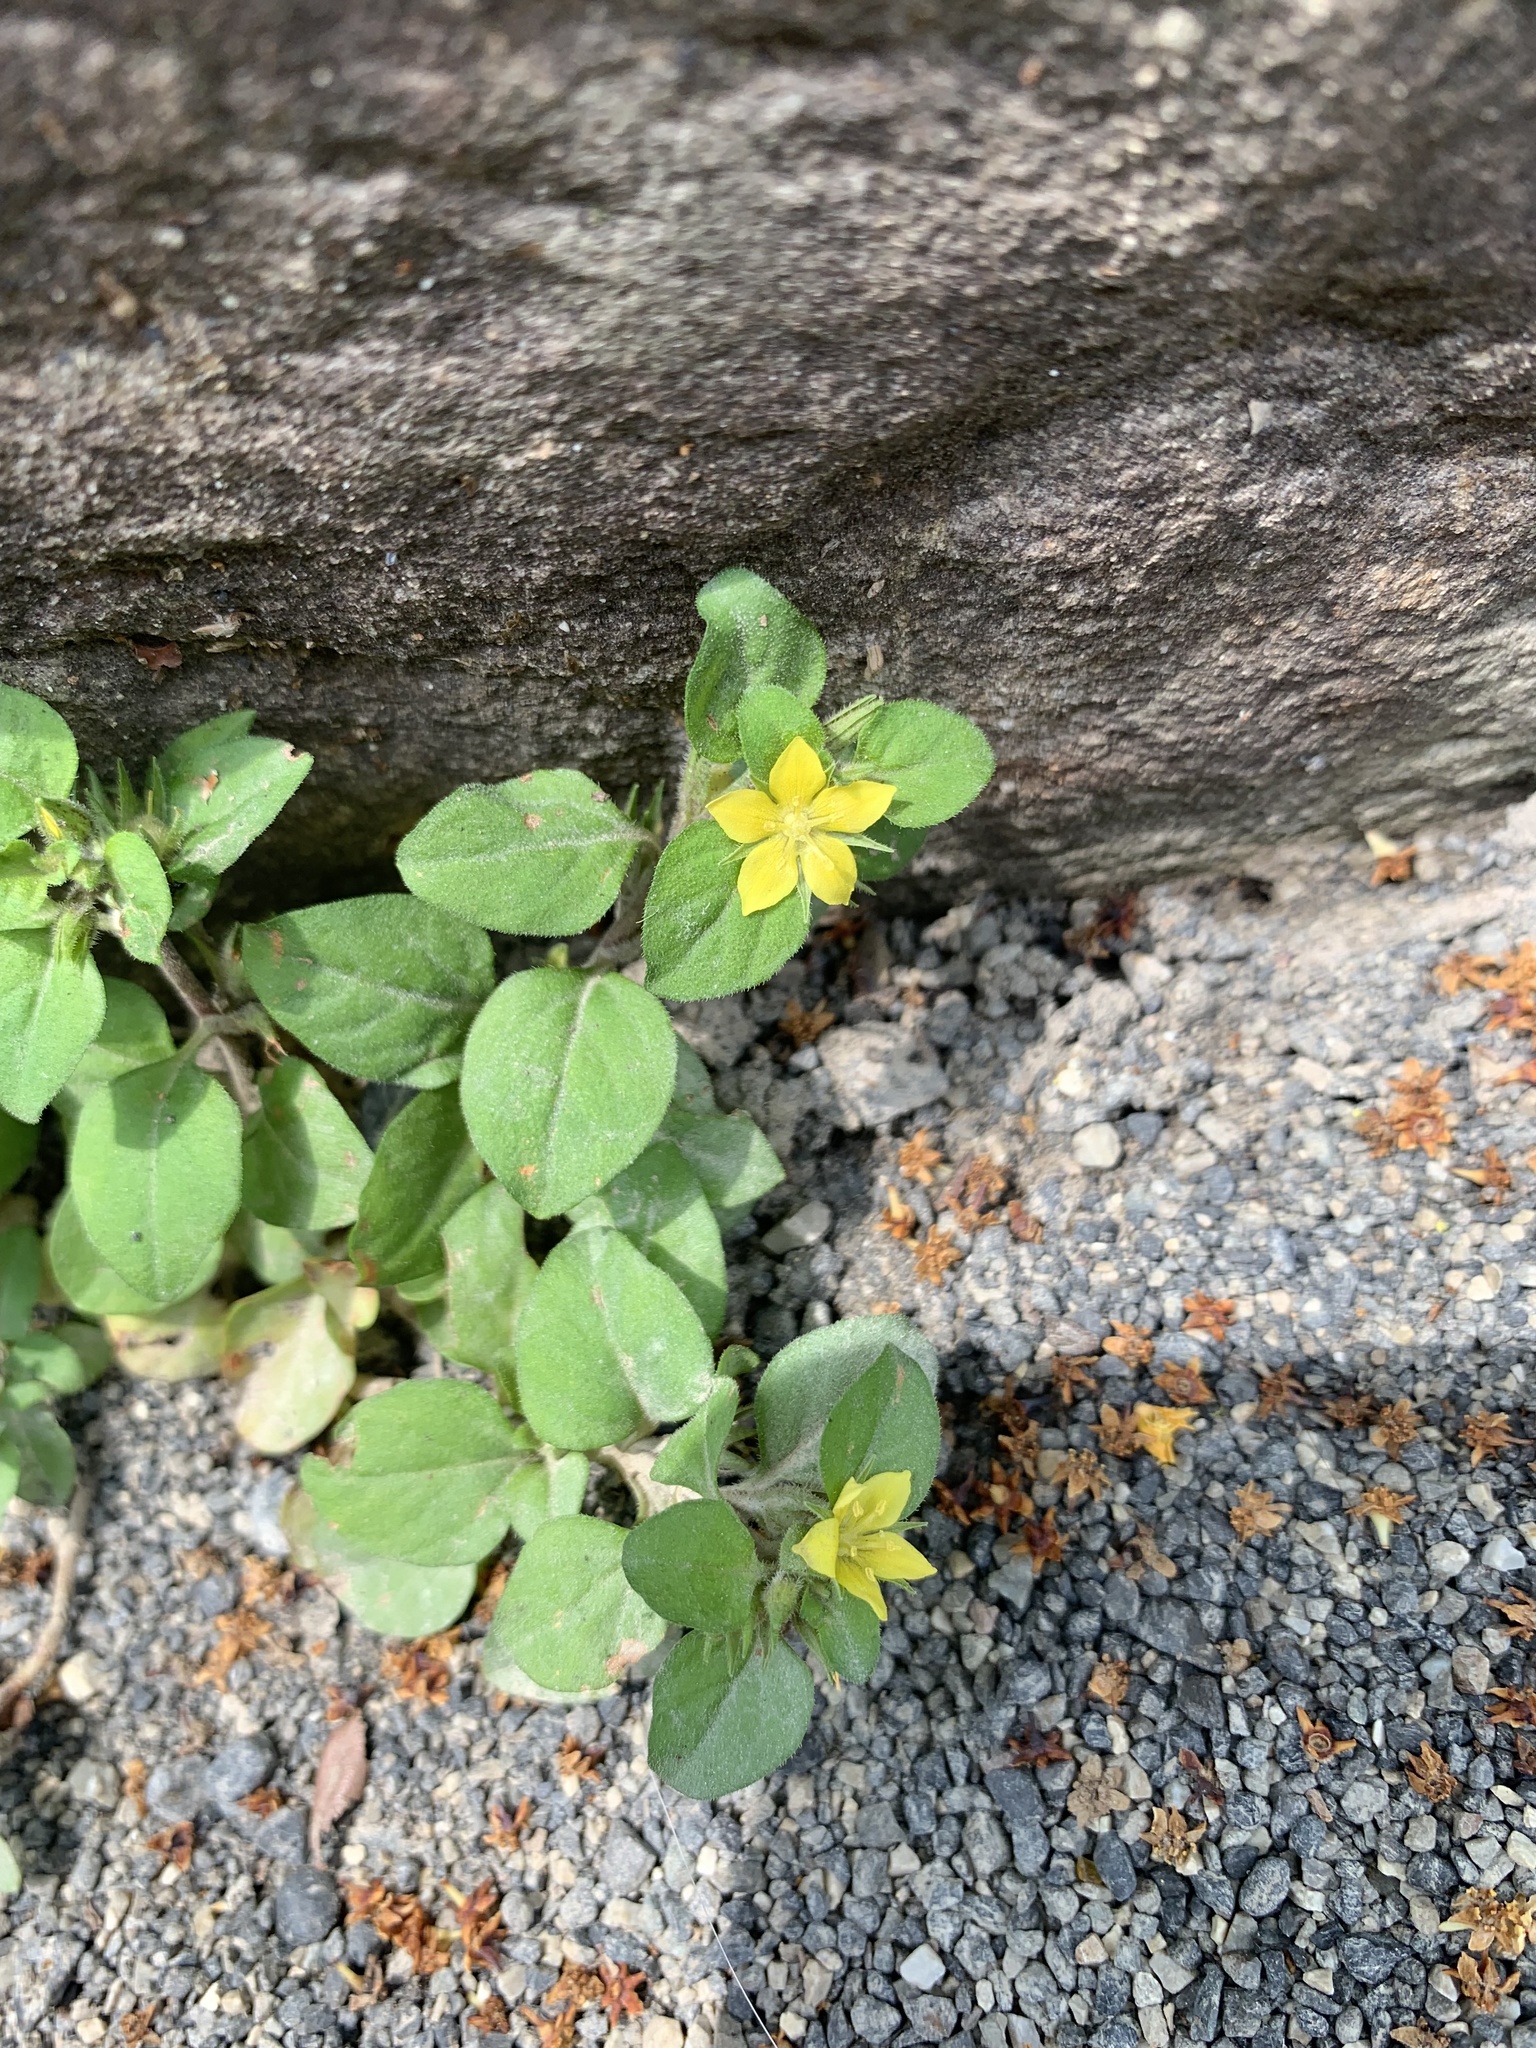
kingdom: Plantae
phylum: Tracheophyta
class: Magnoliopsida
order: Ericales
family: Primulaceae
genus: Lysimachia
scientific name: Lysimachia japonica
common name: Japanese yellow loosestrife
